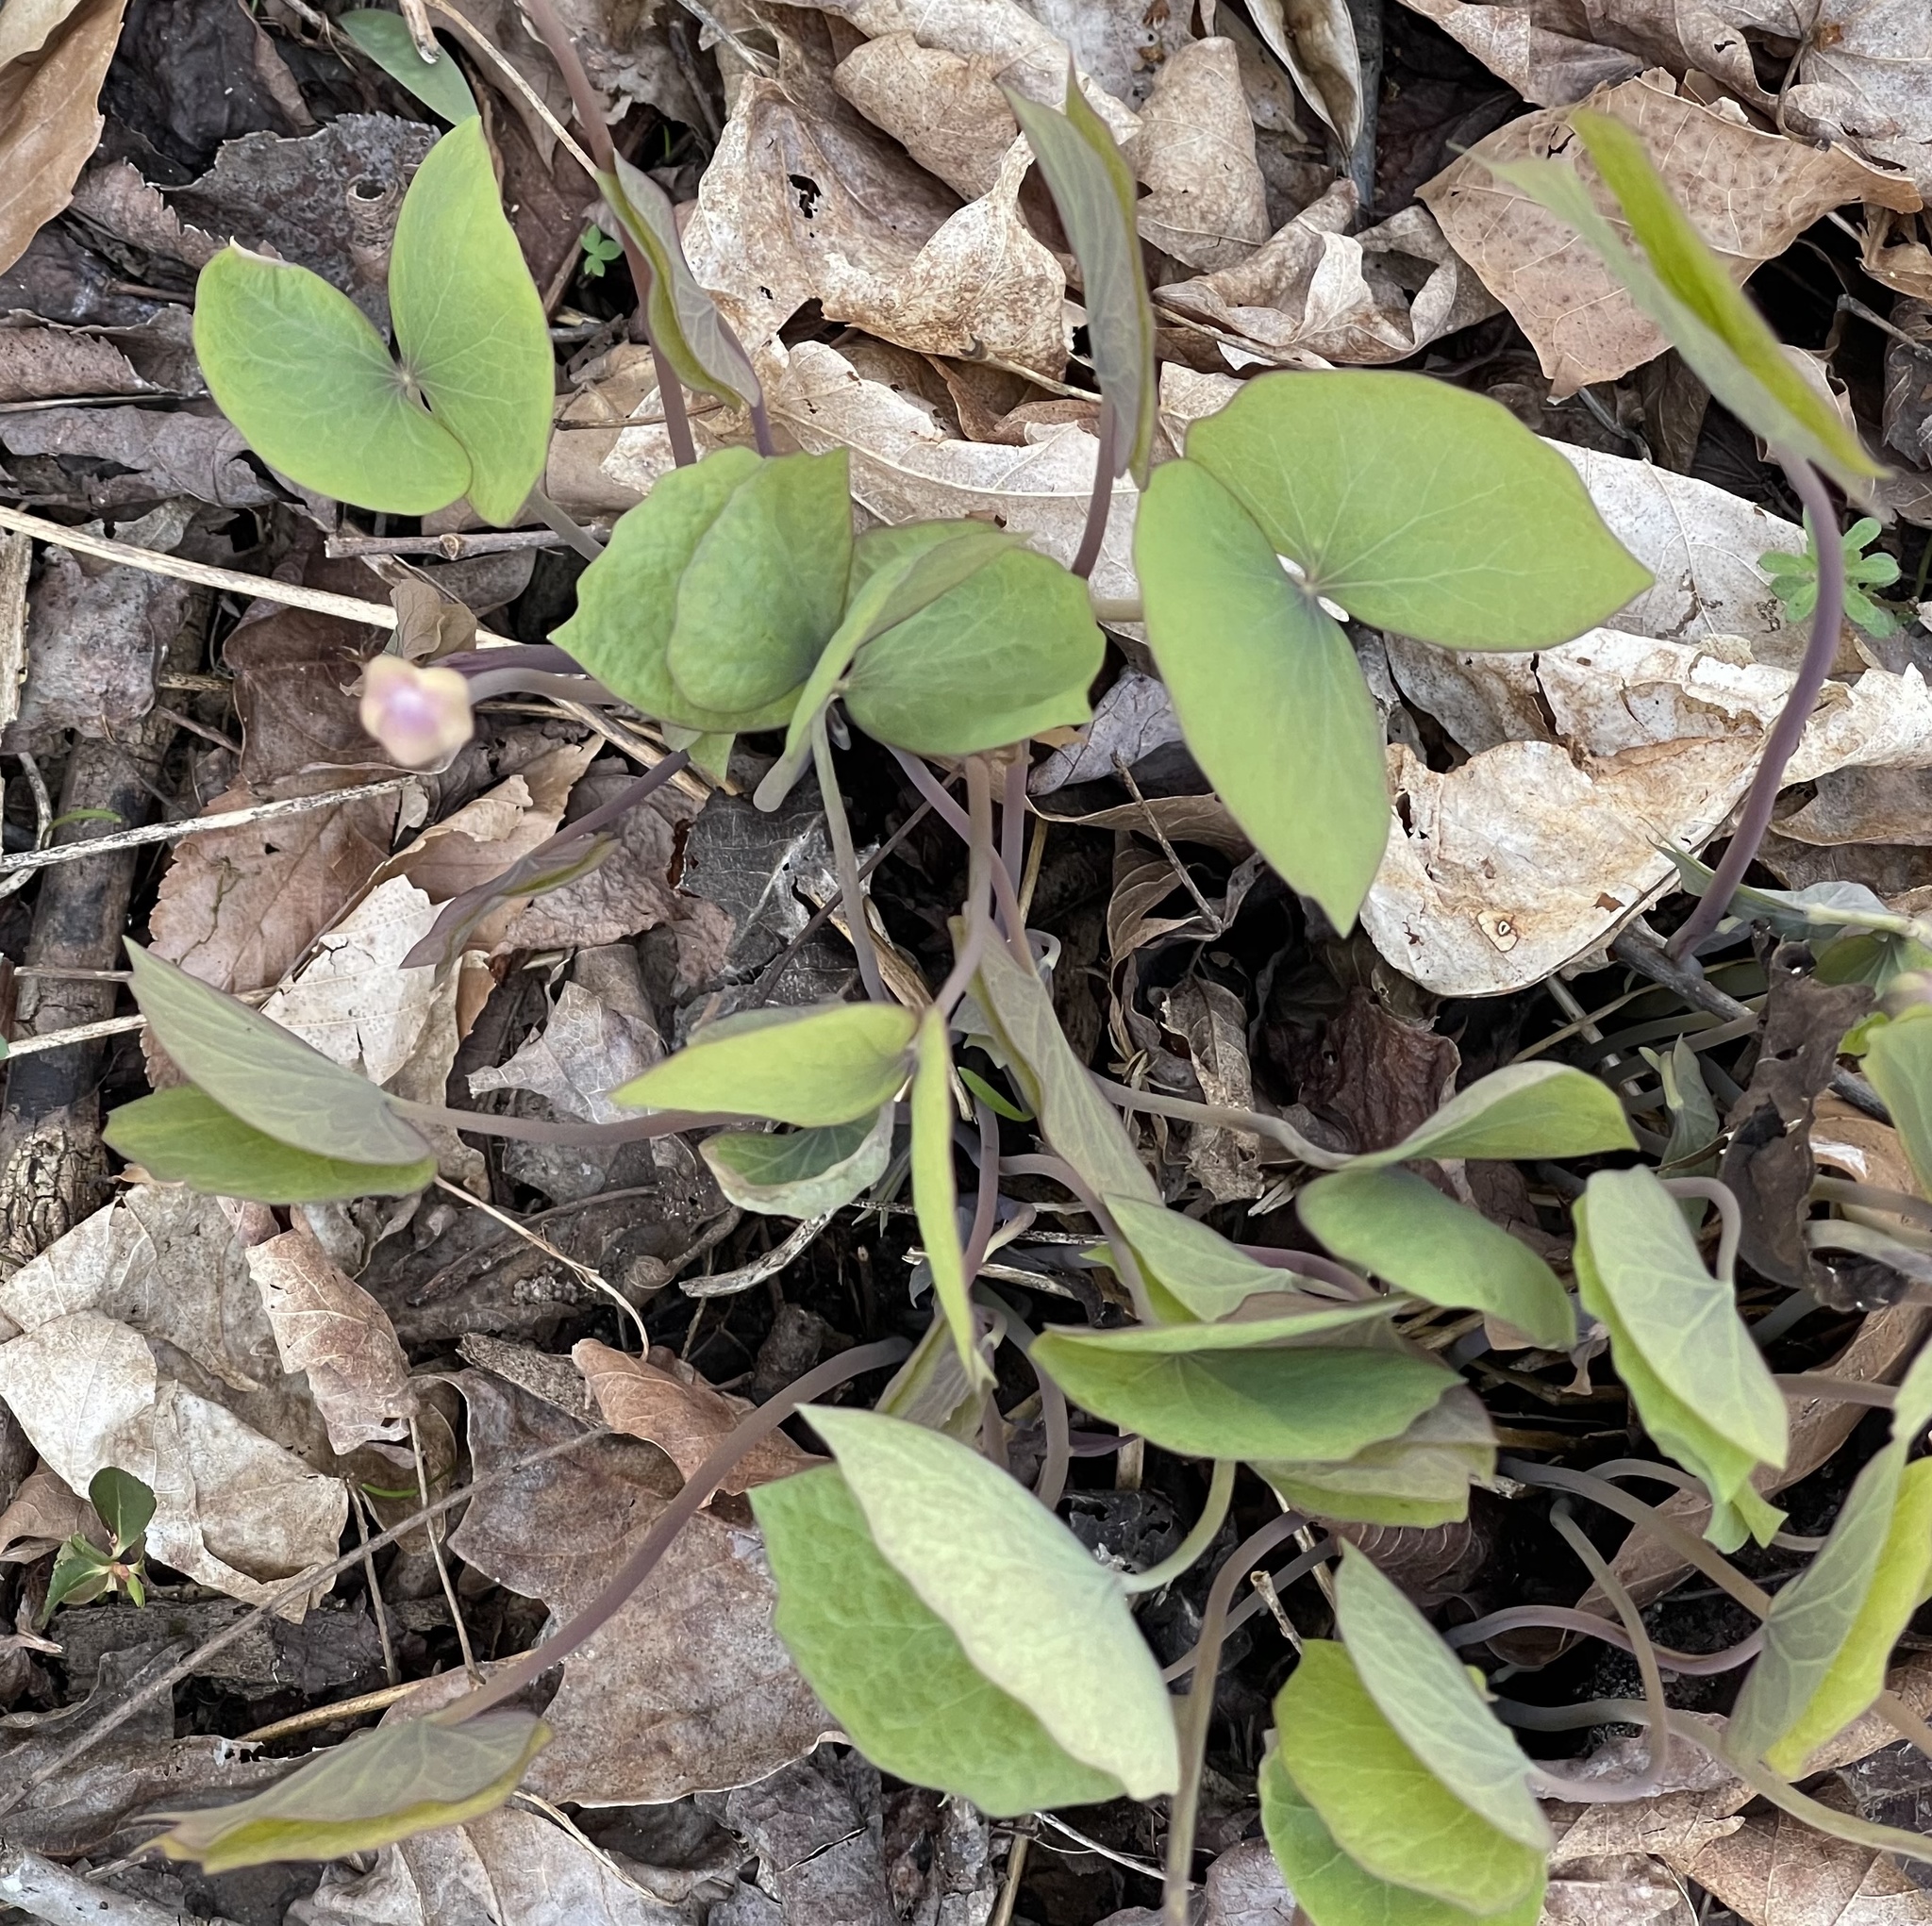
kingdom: Plantae
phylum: Tracheophyta
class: Magnoliopsida
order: Ranunculales
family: Berberidaceae
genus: Jeffersonia
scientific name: Jeffersonia diphylla
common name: Rheumatism-root
